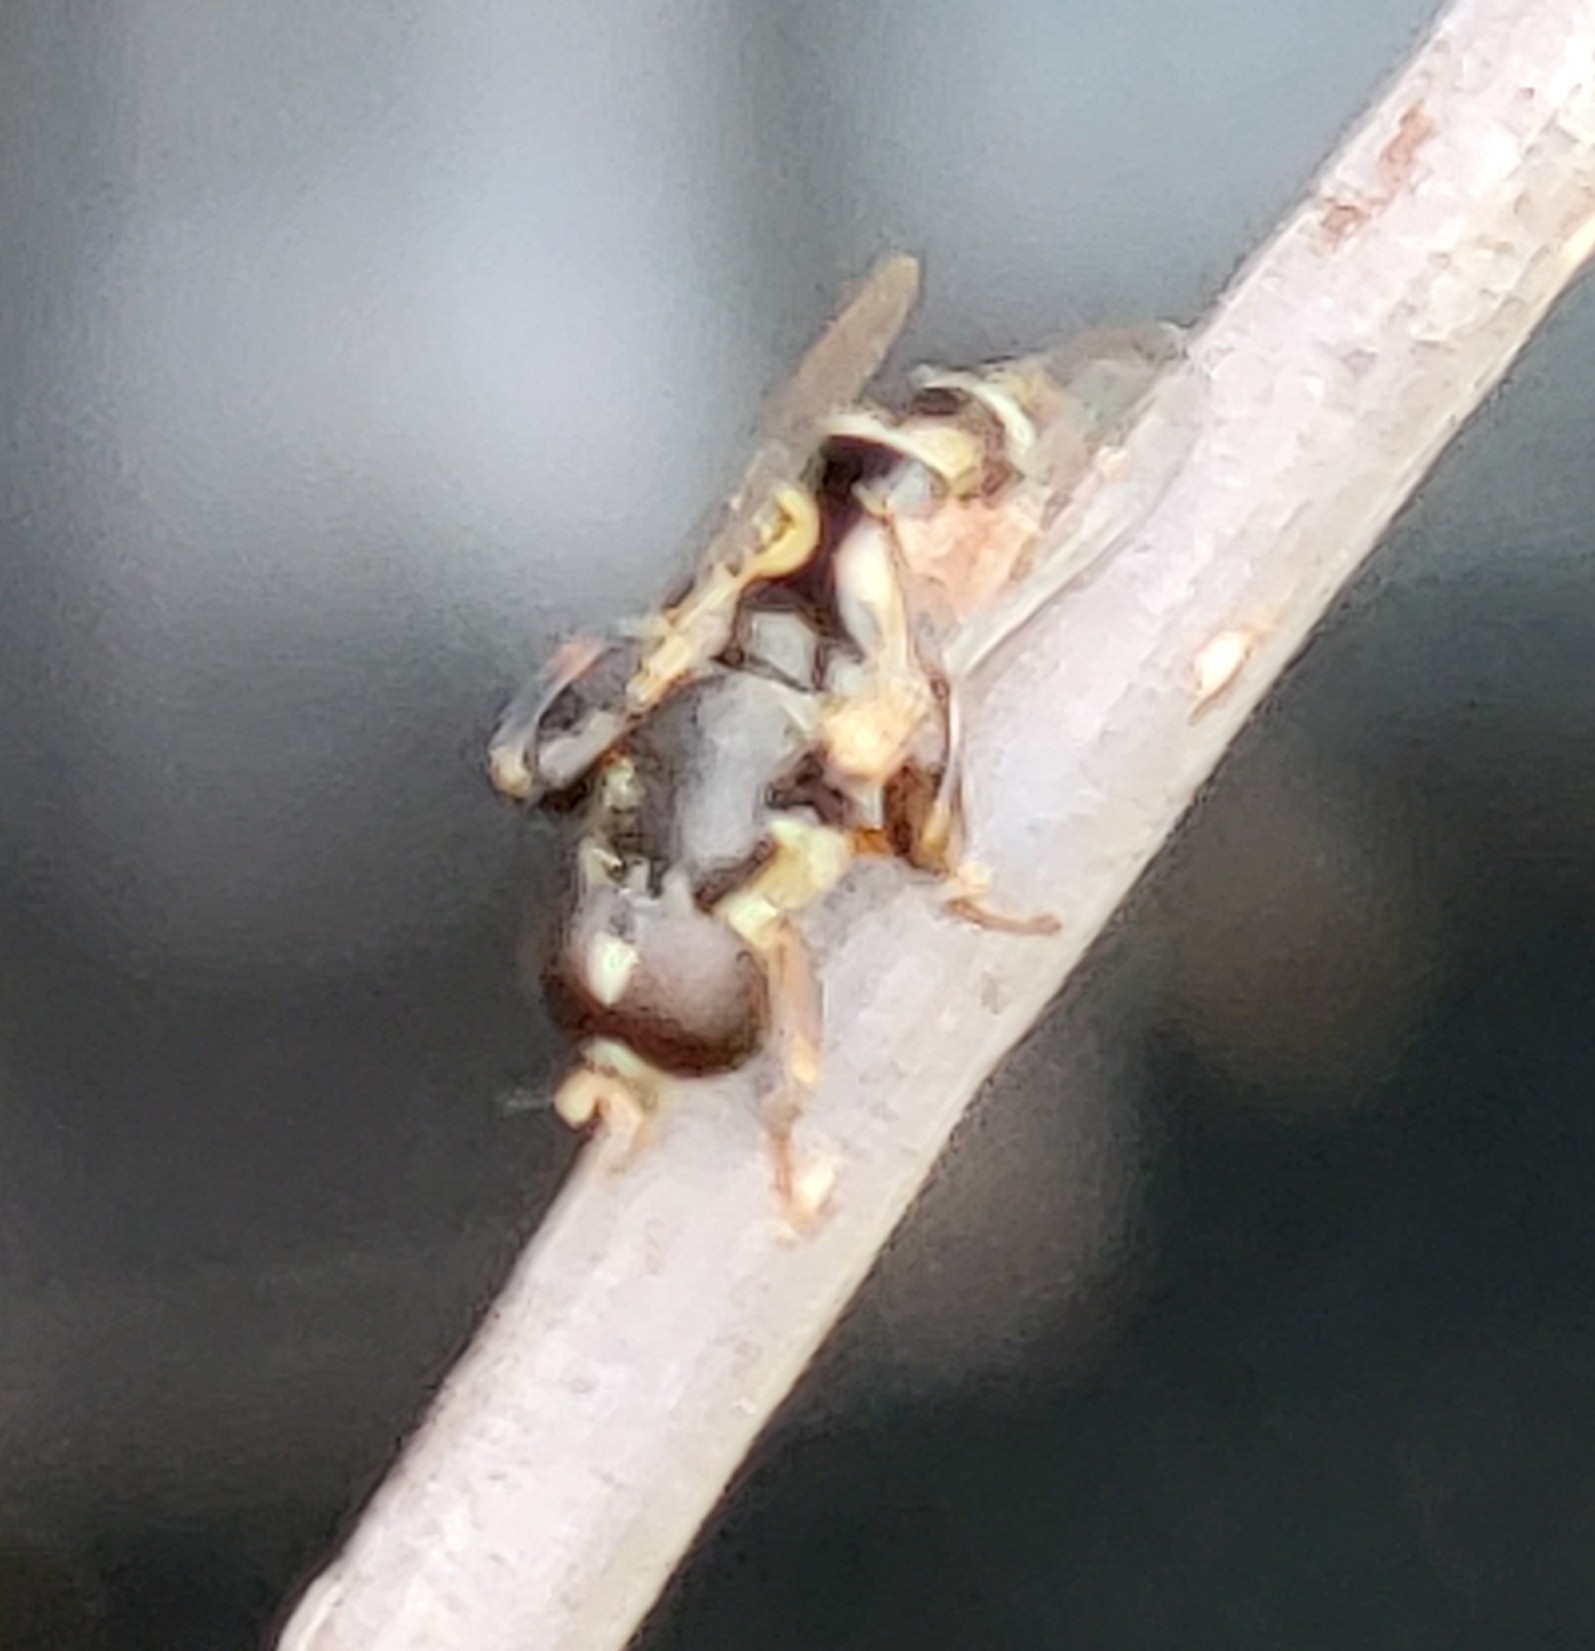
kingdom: Animalia
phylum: Arthropoda
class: Insecta
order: Diptera
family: Syrphidae
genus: Syritta
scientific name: Syritta pipiens
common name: Hover fly
